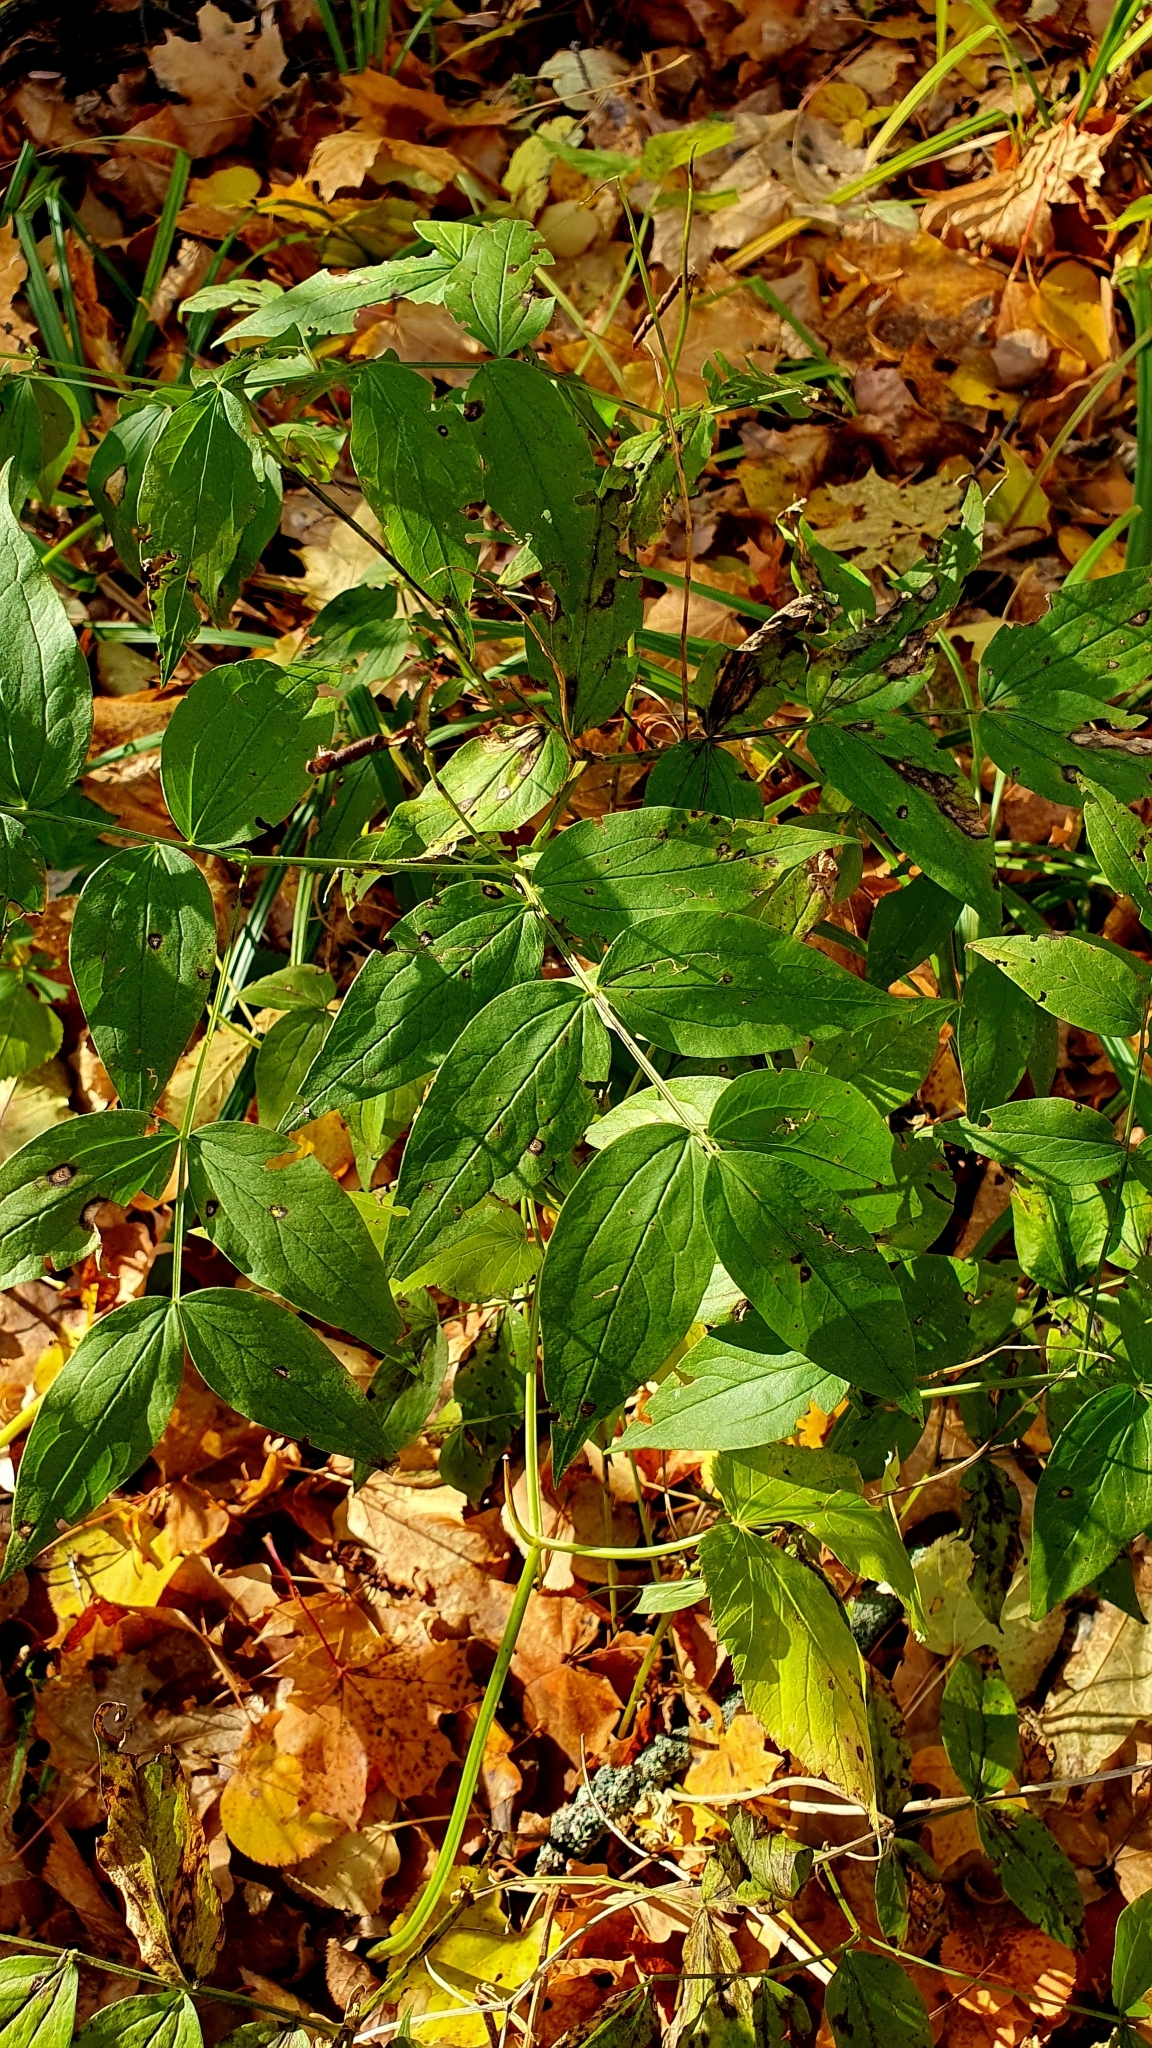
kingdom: Plantae
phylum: Tracheophyta
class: Magnoliopsida
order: Fabales
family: Fabaceae
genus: Lathyrus
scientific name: Lathyrus vernus
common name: Spring pea
